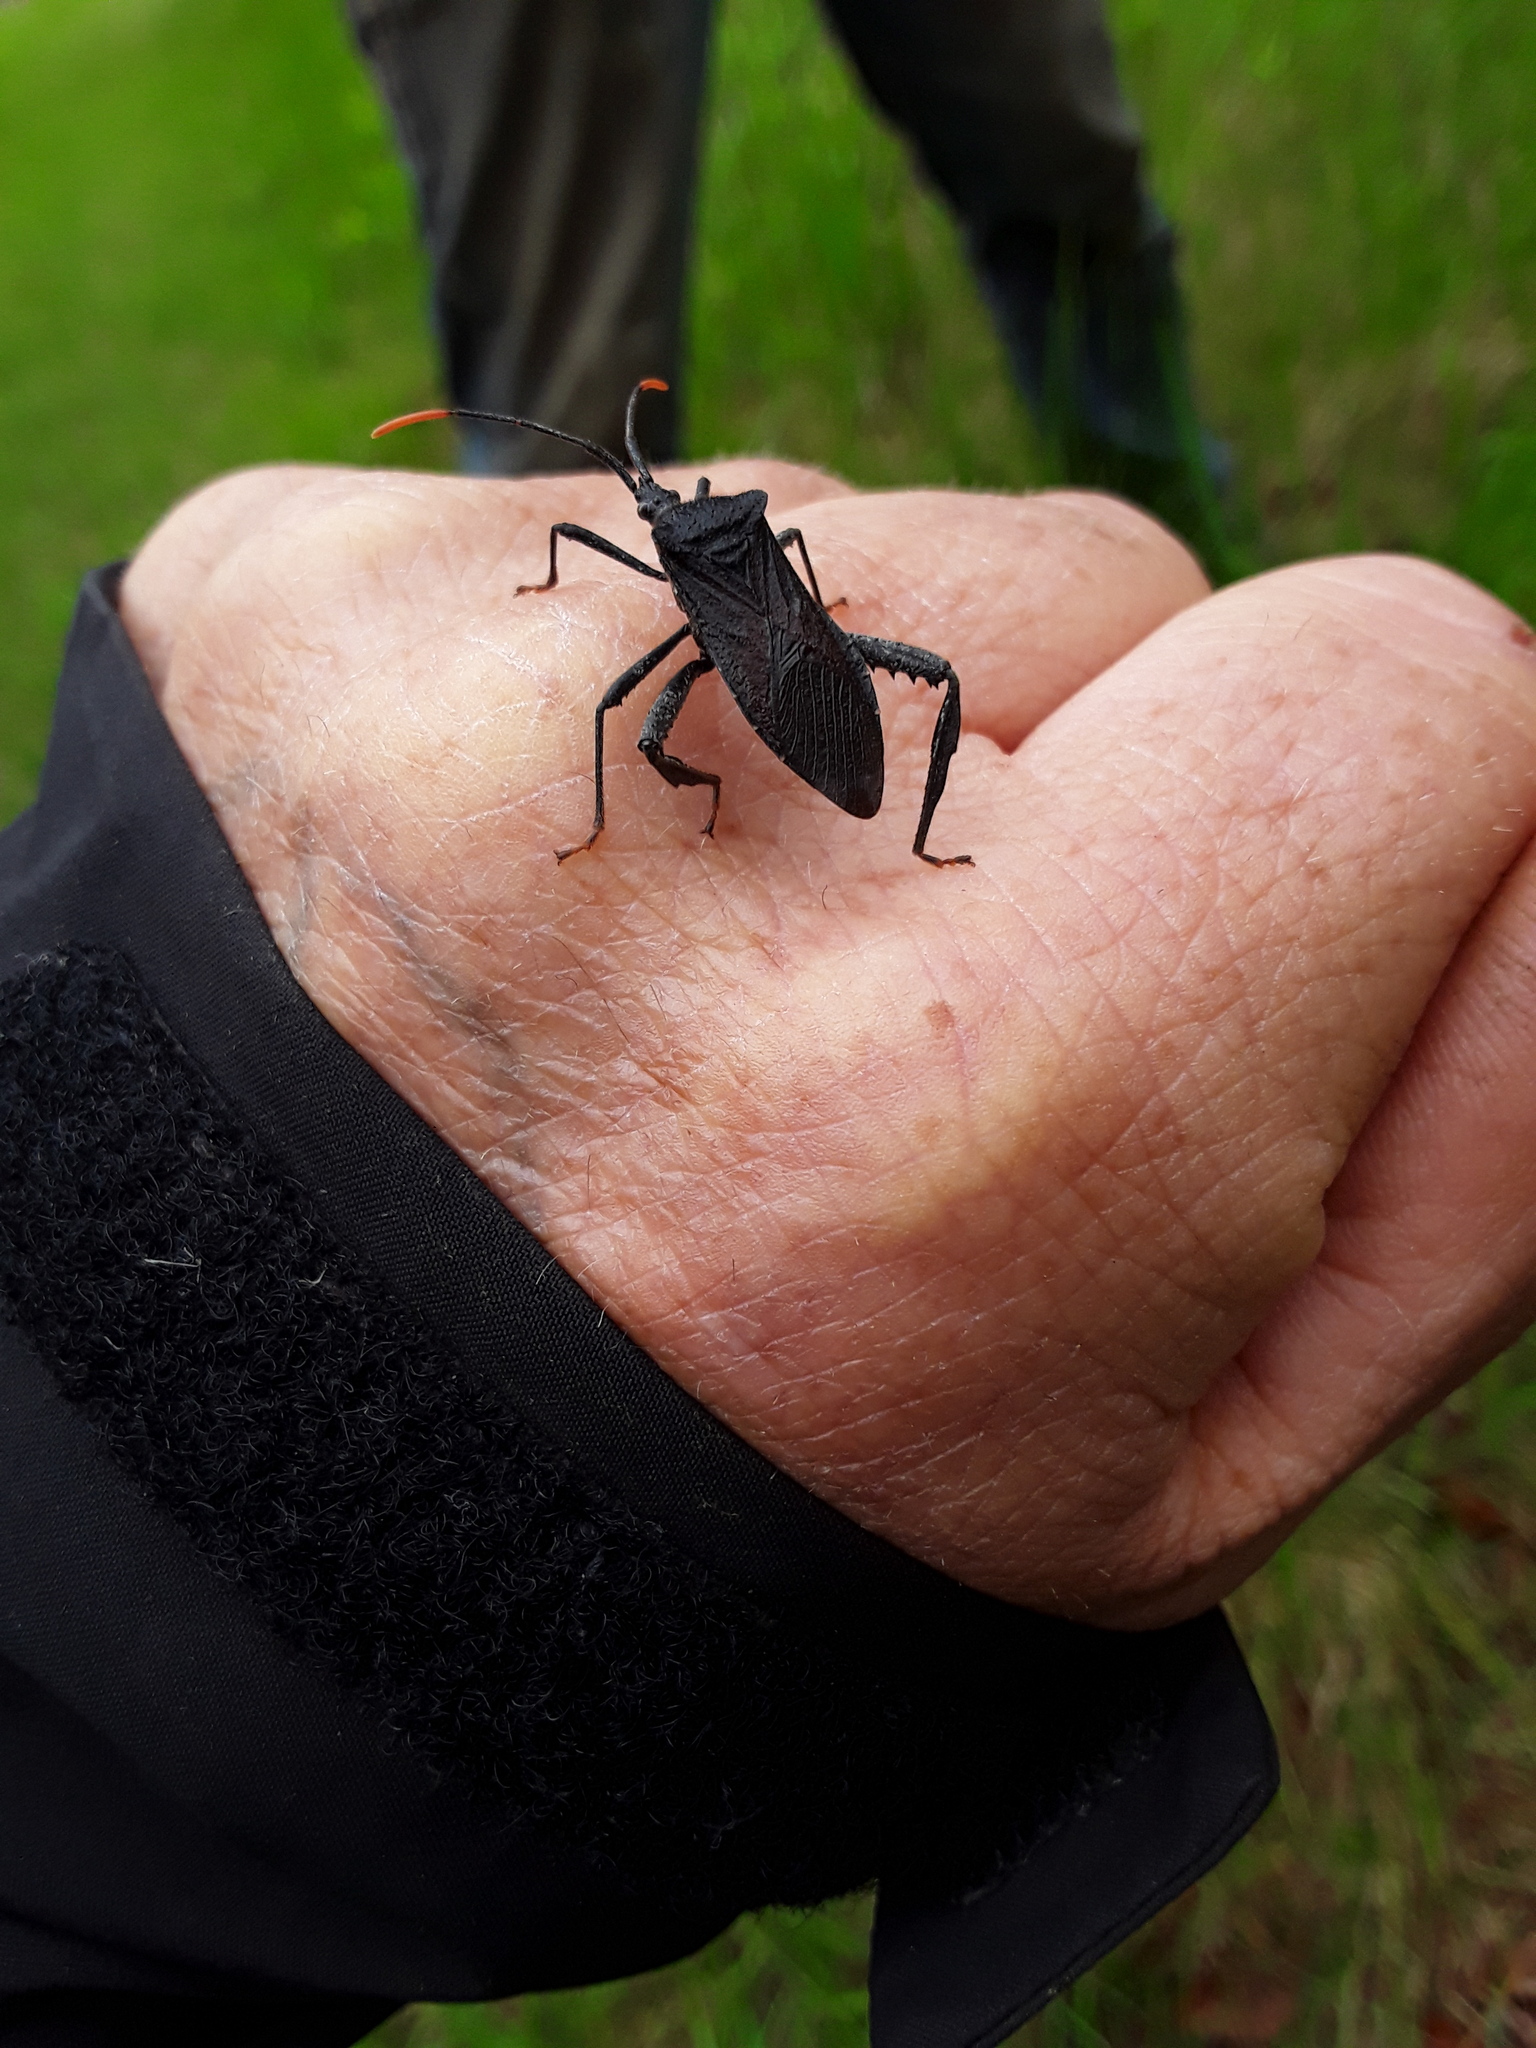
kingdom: Animalia
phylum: Arthropoda
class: Insecta
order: Hemiptera
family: Coreidae
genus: Acanthocephala
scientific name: Acanthocephala terminalis
